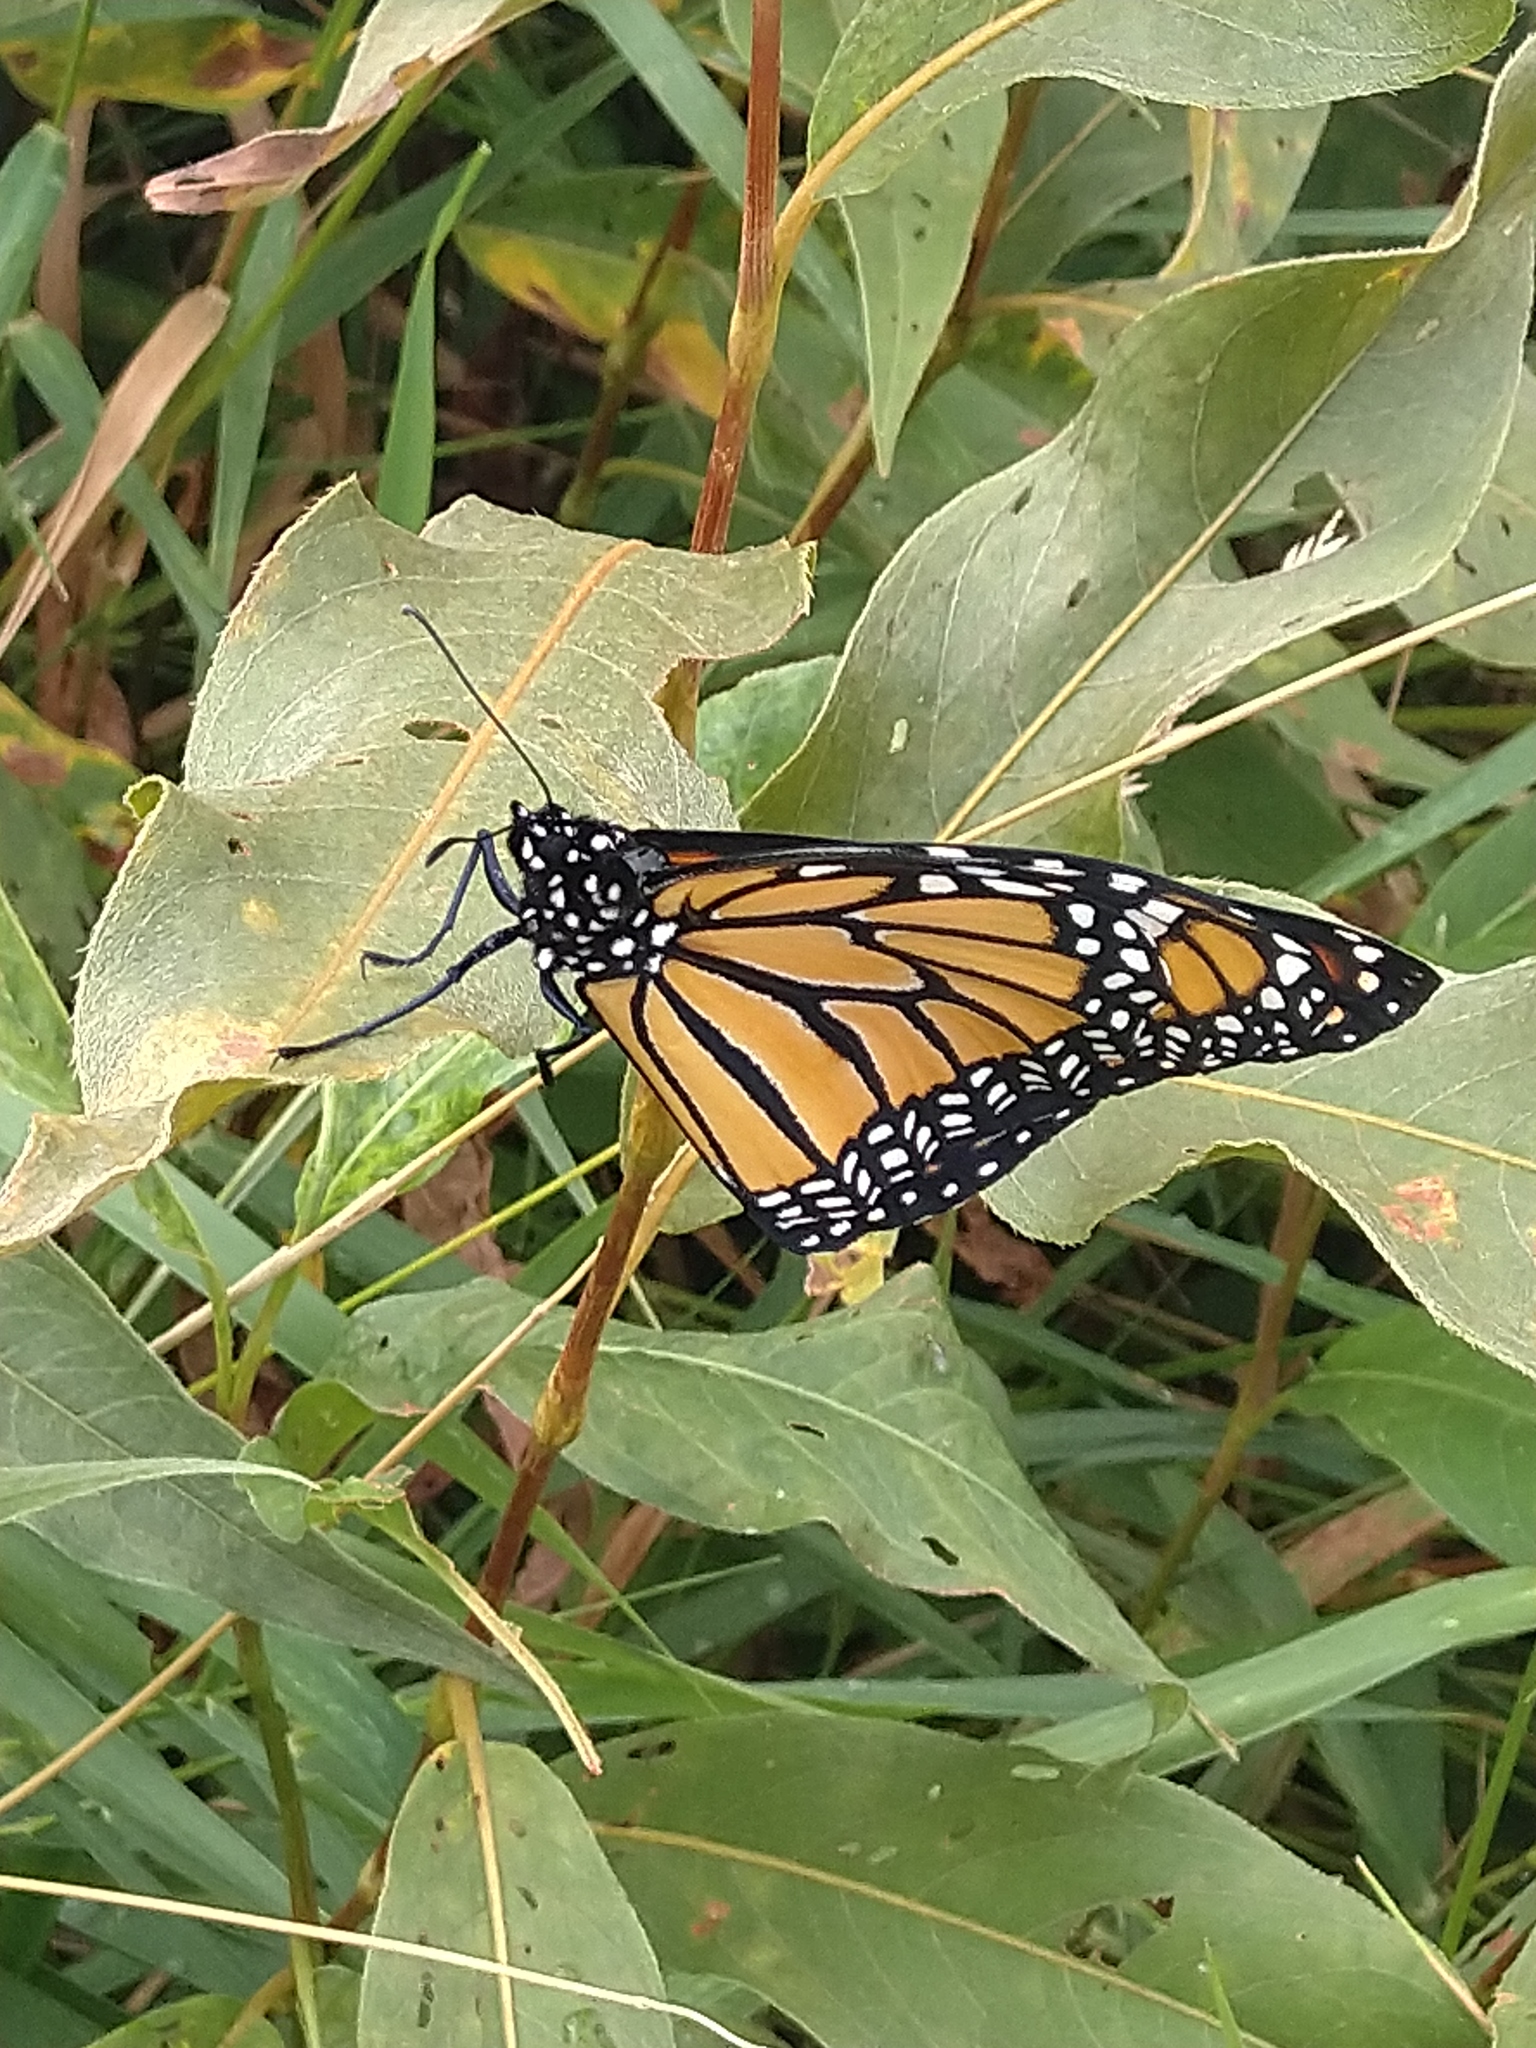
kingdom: Animalia
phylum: Arthropoda
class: Insecta
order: Lepidoptera
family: Nymphalidae
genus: Danaus
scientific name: Danaus plexippus
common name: Monarch
